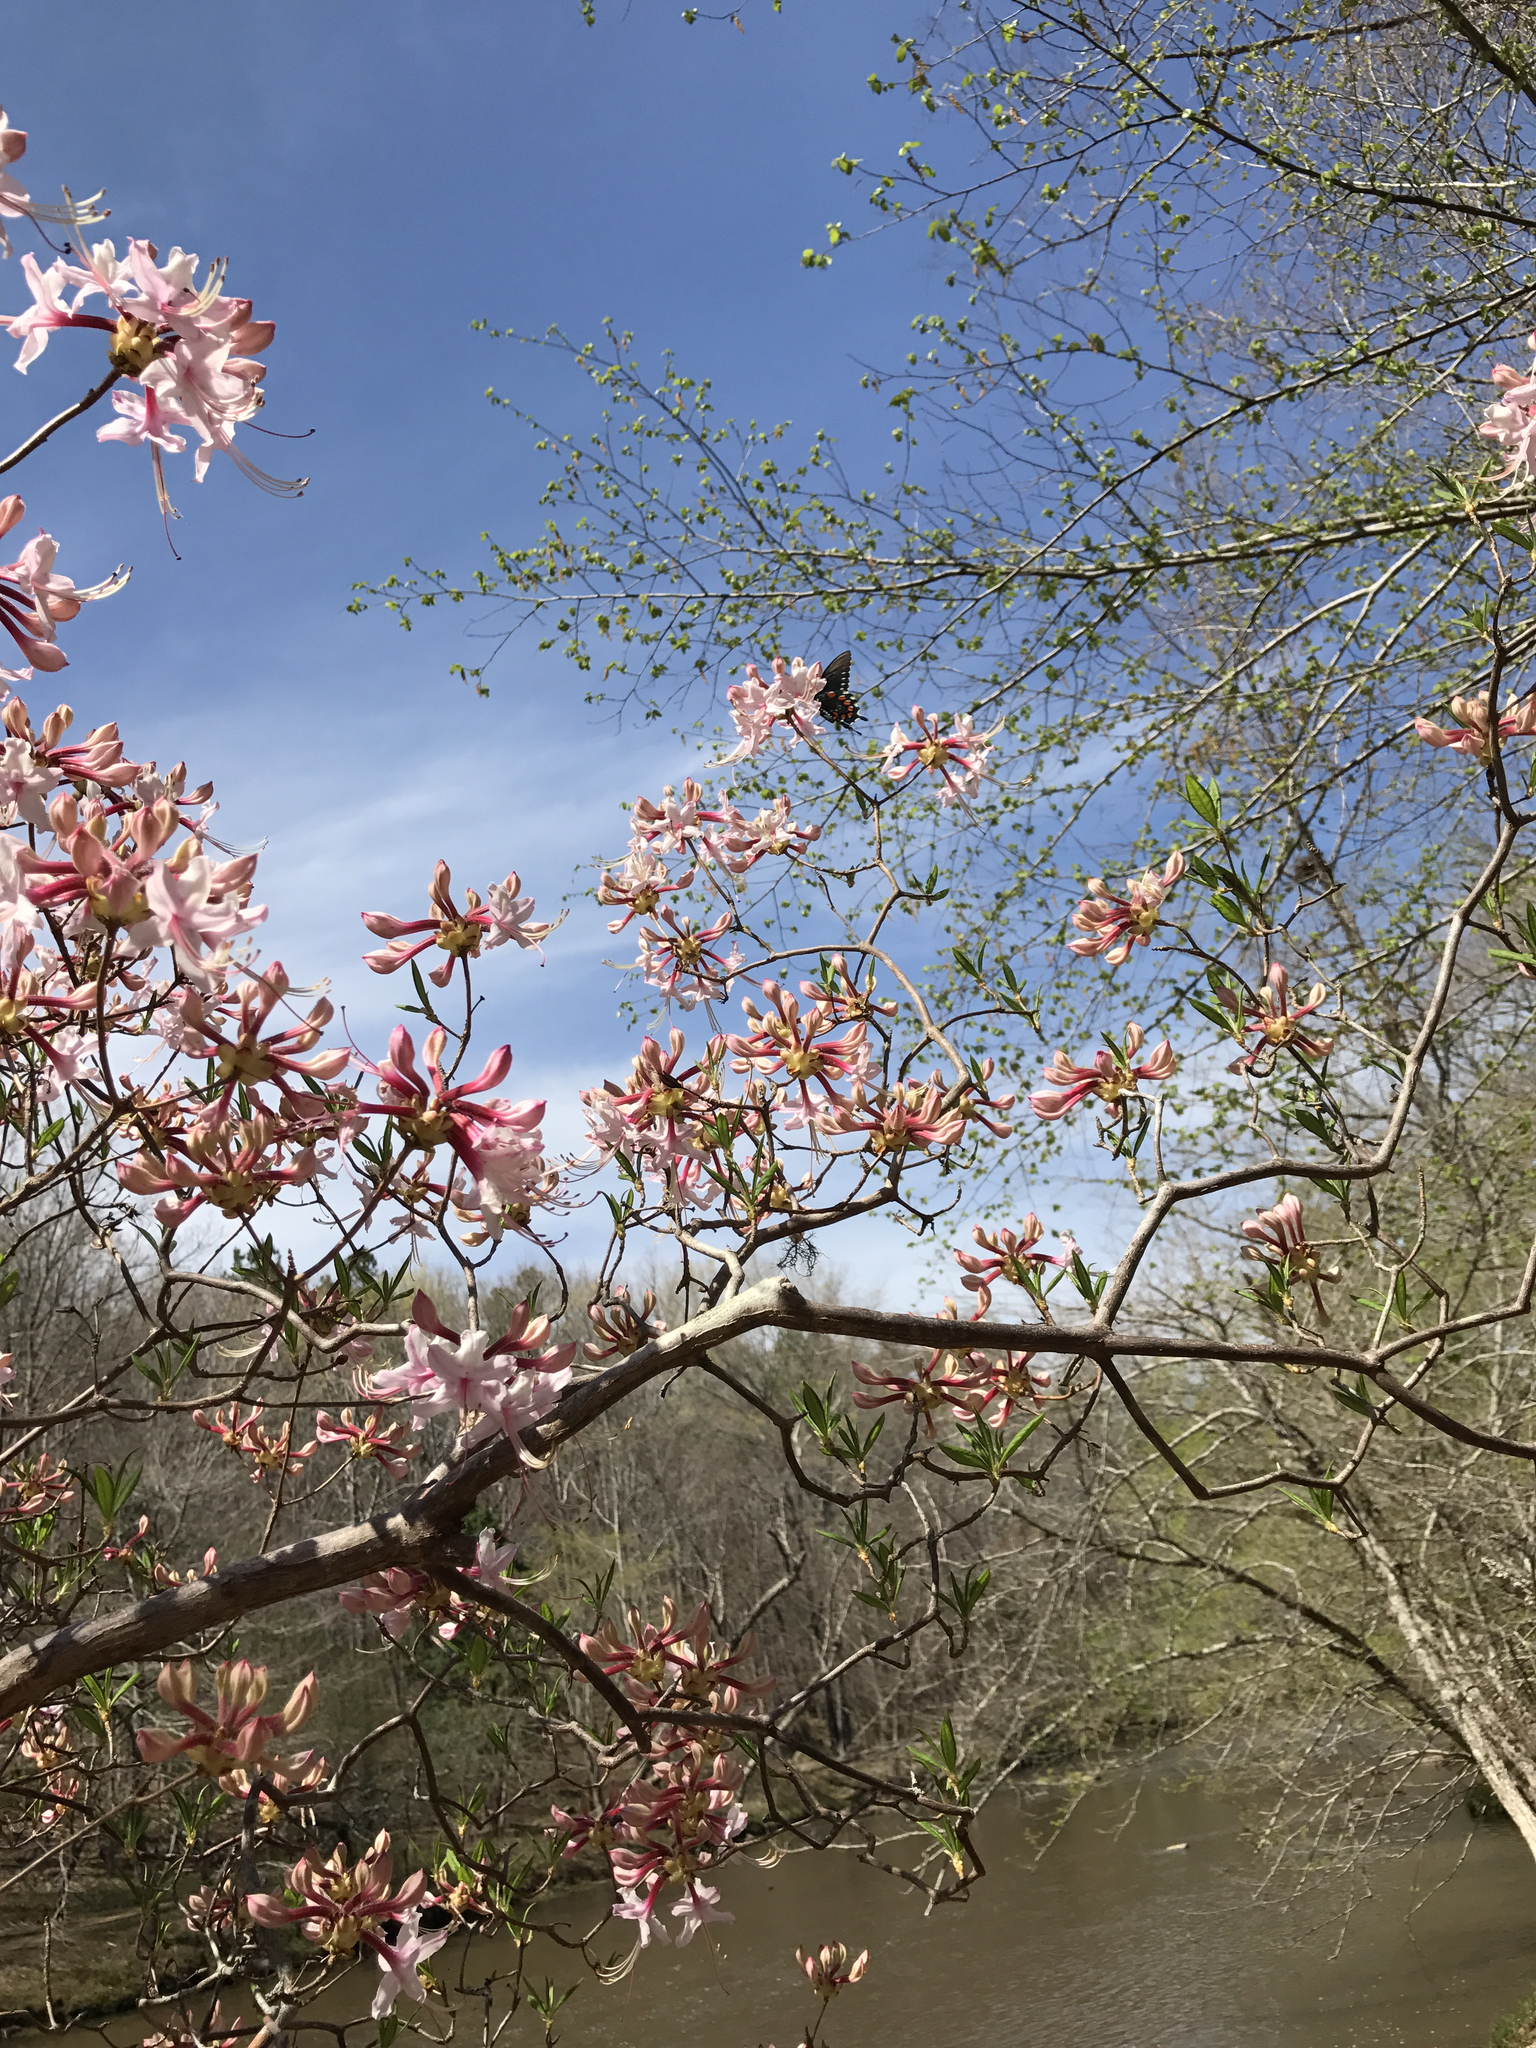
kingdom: Plantae
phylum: Tracheophyta
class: Magnoliopsida
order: Ericales
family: Ericaceae
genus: Rhododendron
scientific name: Rhododendron periclymenoides
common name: Election-pink
